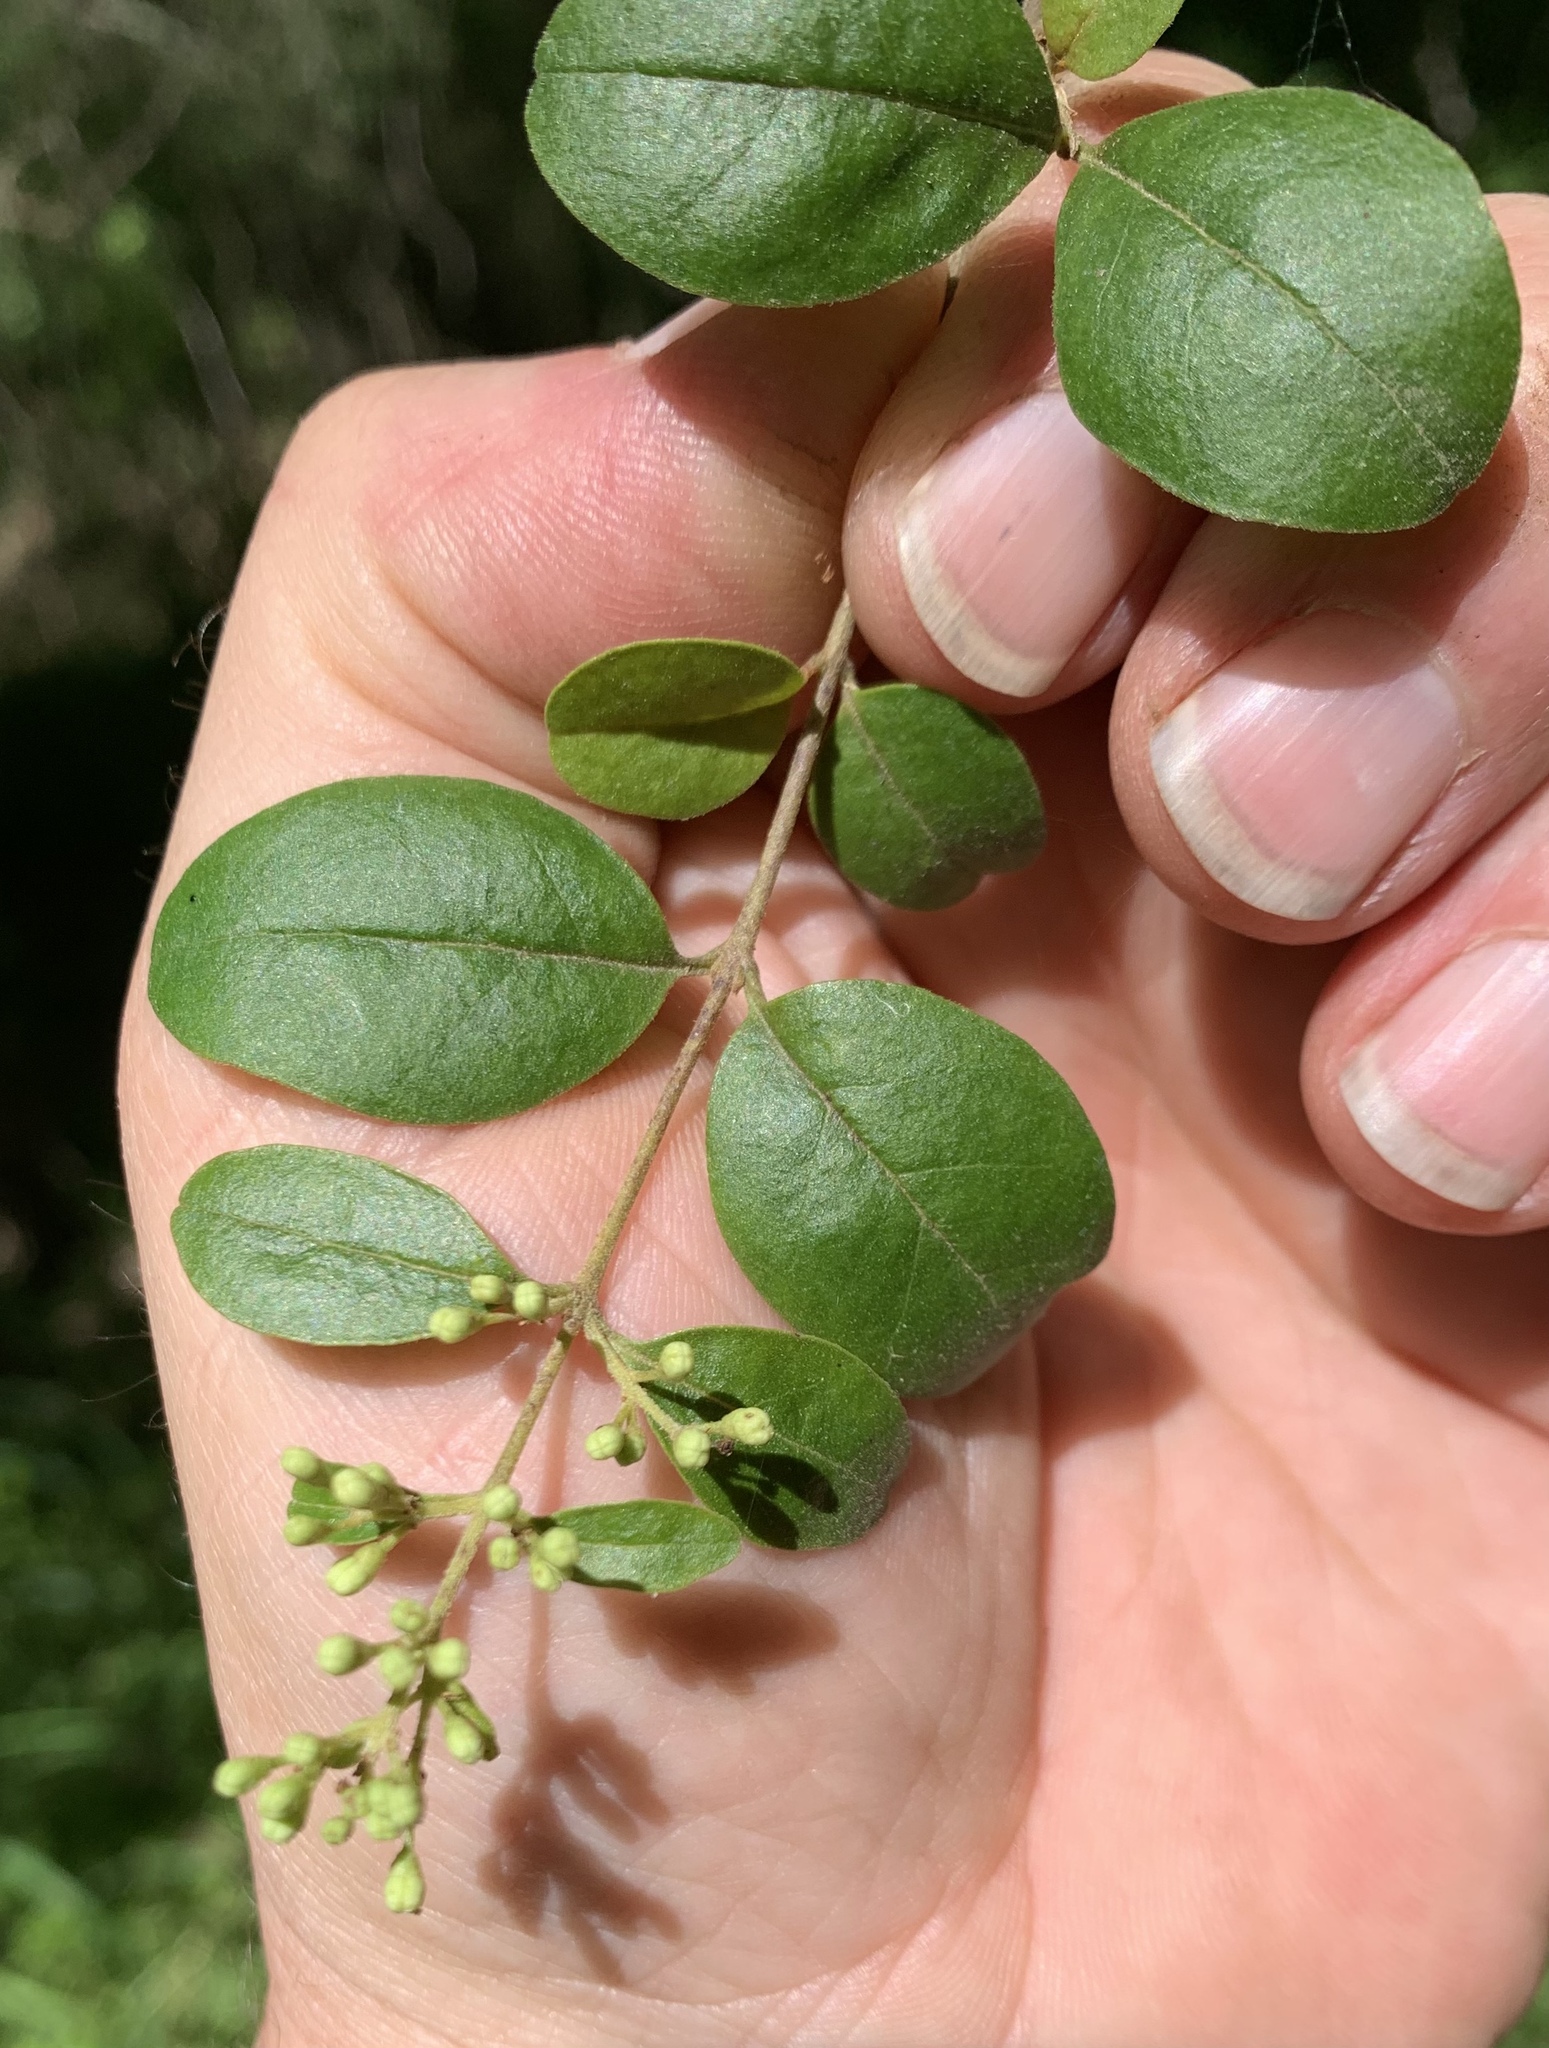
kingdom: Plantae
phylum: Tracheophyta
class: Magnoliopsida
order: Lamiales
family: Oleaceae
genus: Ligustrum
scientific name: Ligustrum sinense
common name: Chinese privet
